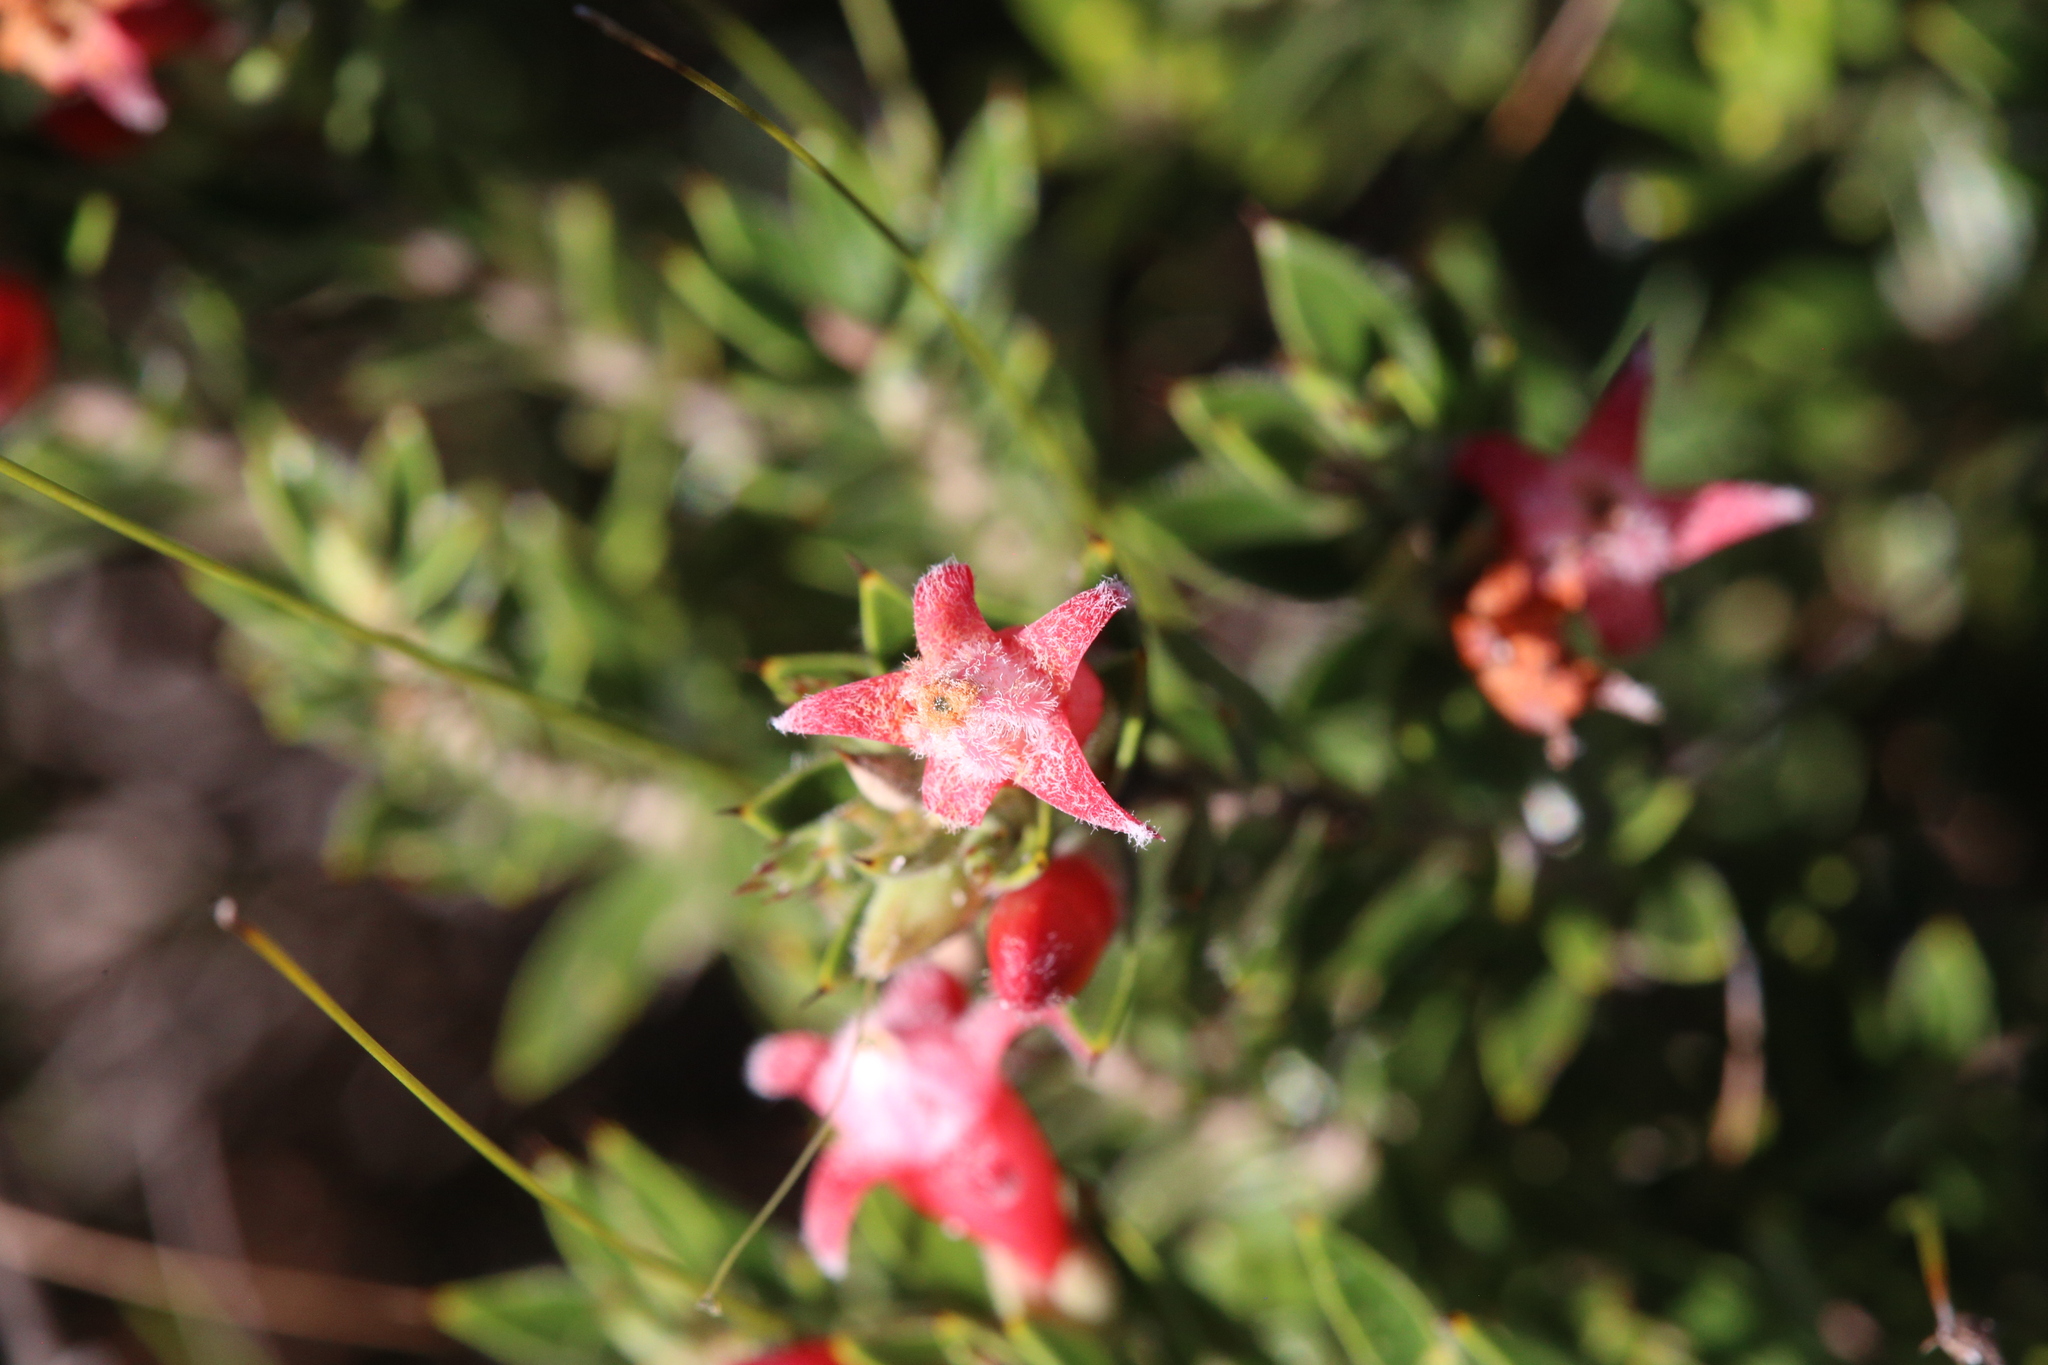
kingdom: Plantae
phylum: Tracheophyta
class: Magnoliopsida
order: Ericales
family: Ericaceae
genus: Styphelia
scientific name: Styphelia stomarrhena
